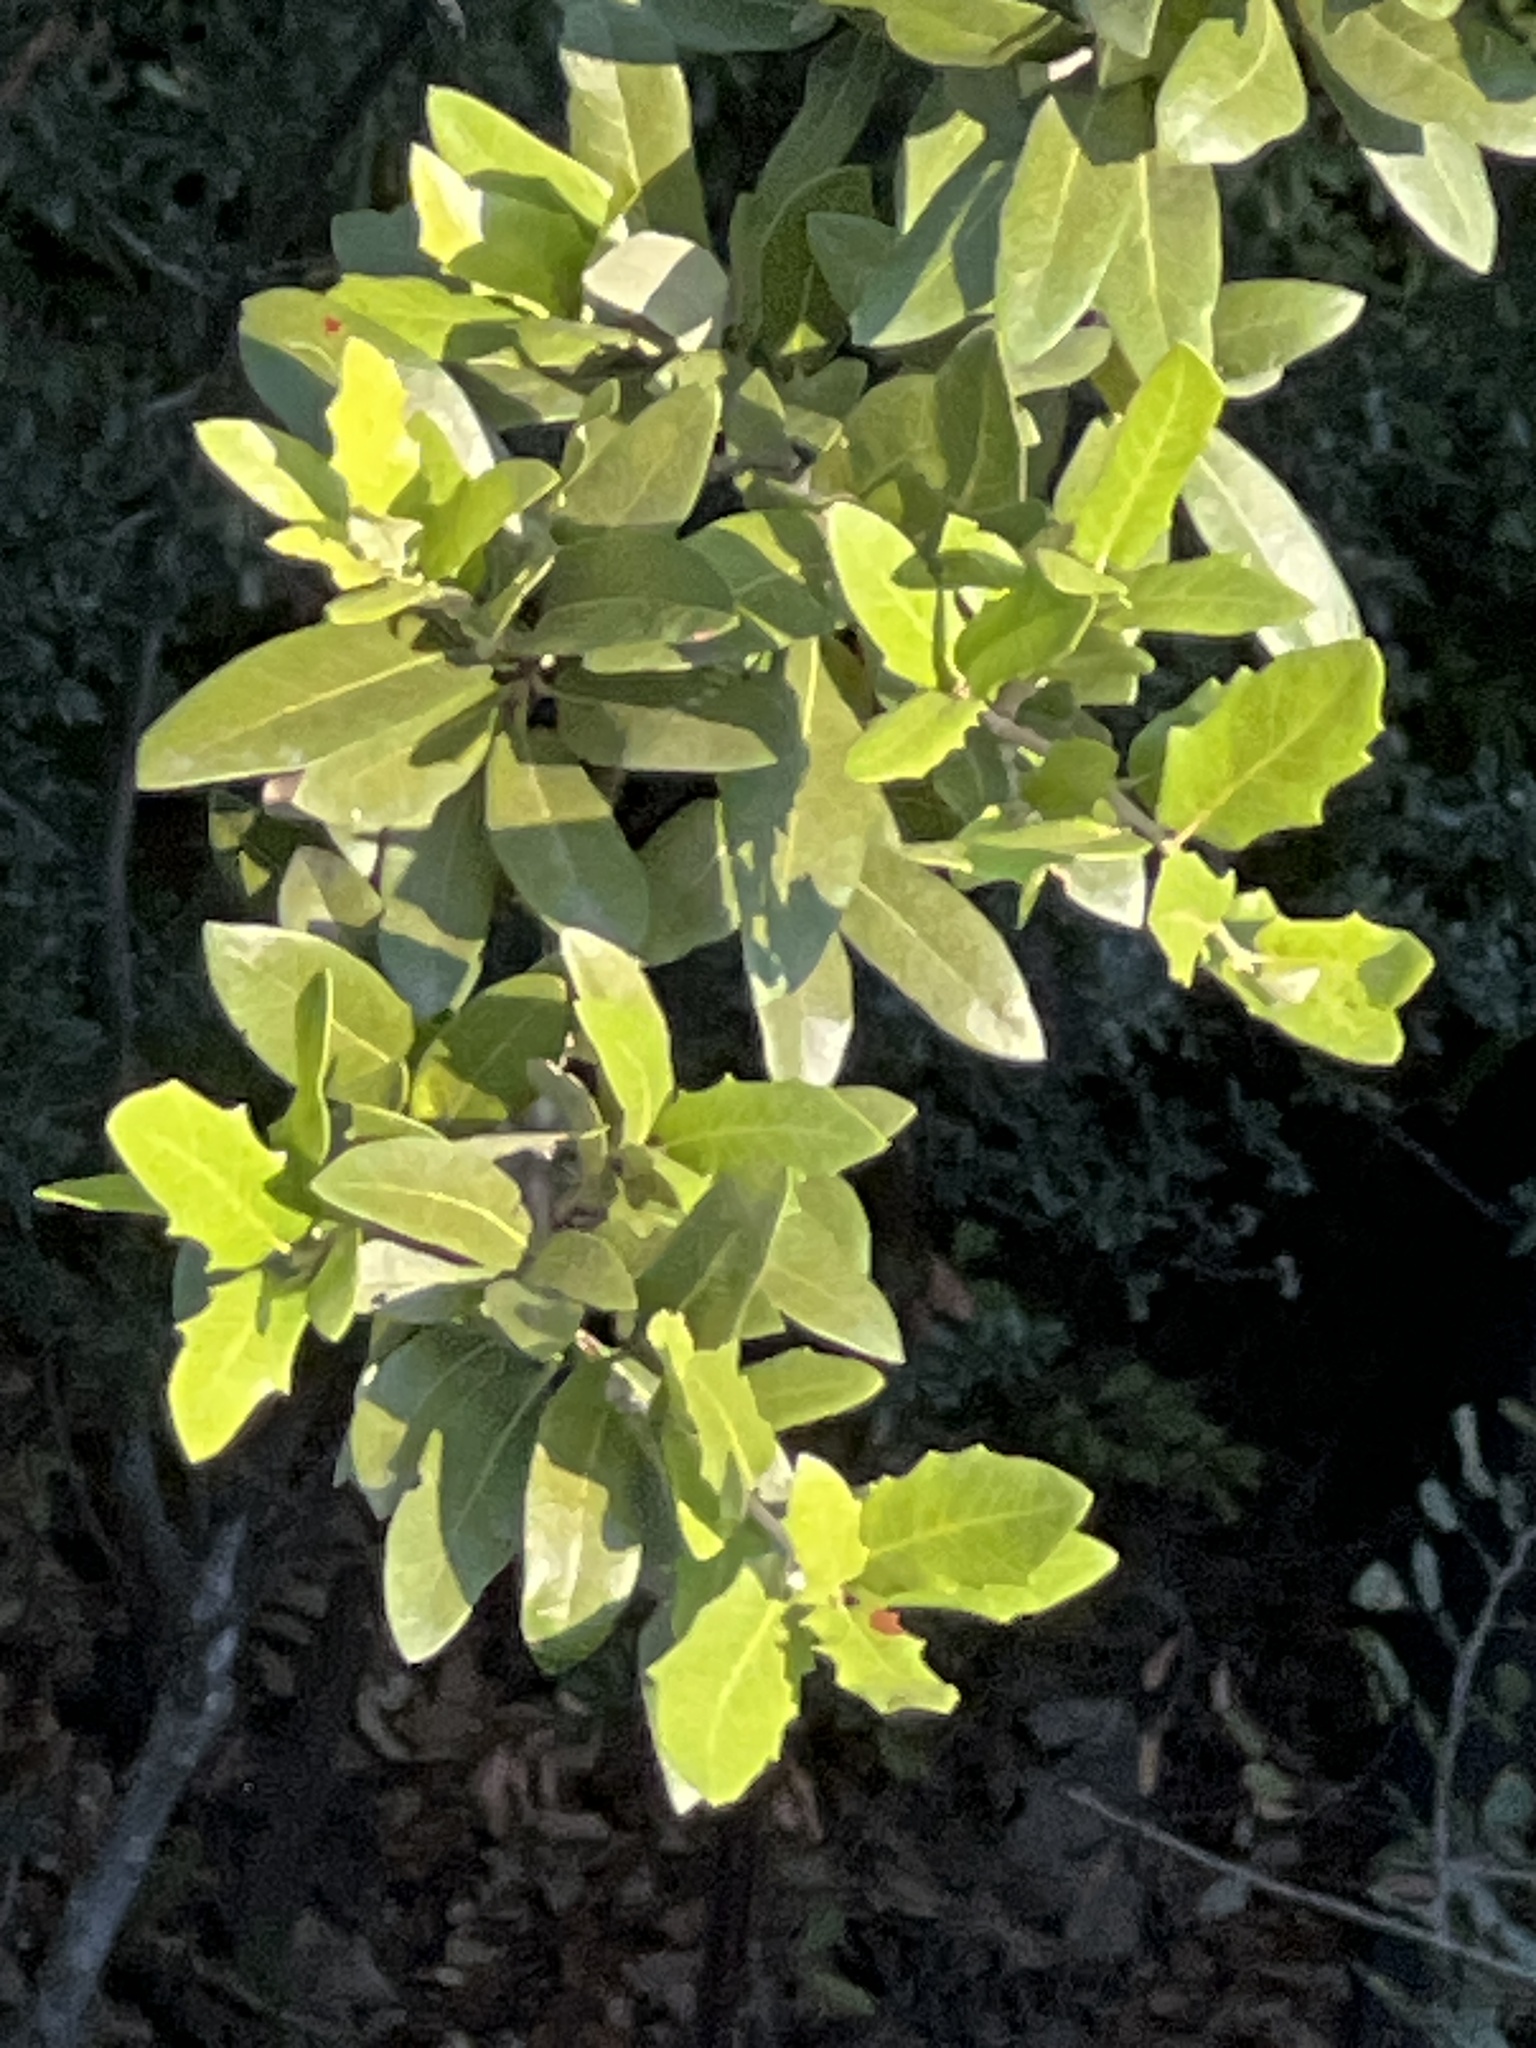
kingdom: Plantae
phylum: Tracheophyta
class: Magnoliopsida
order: Fagales
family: Fagaceae
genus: Quercus
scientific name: Quercus fusiformis
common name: Texas live oak
